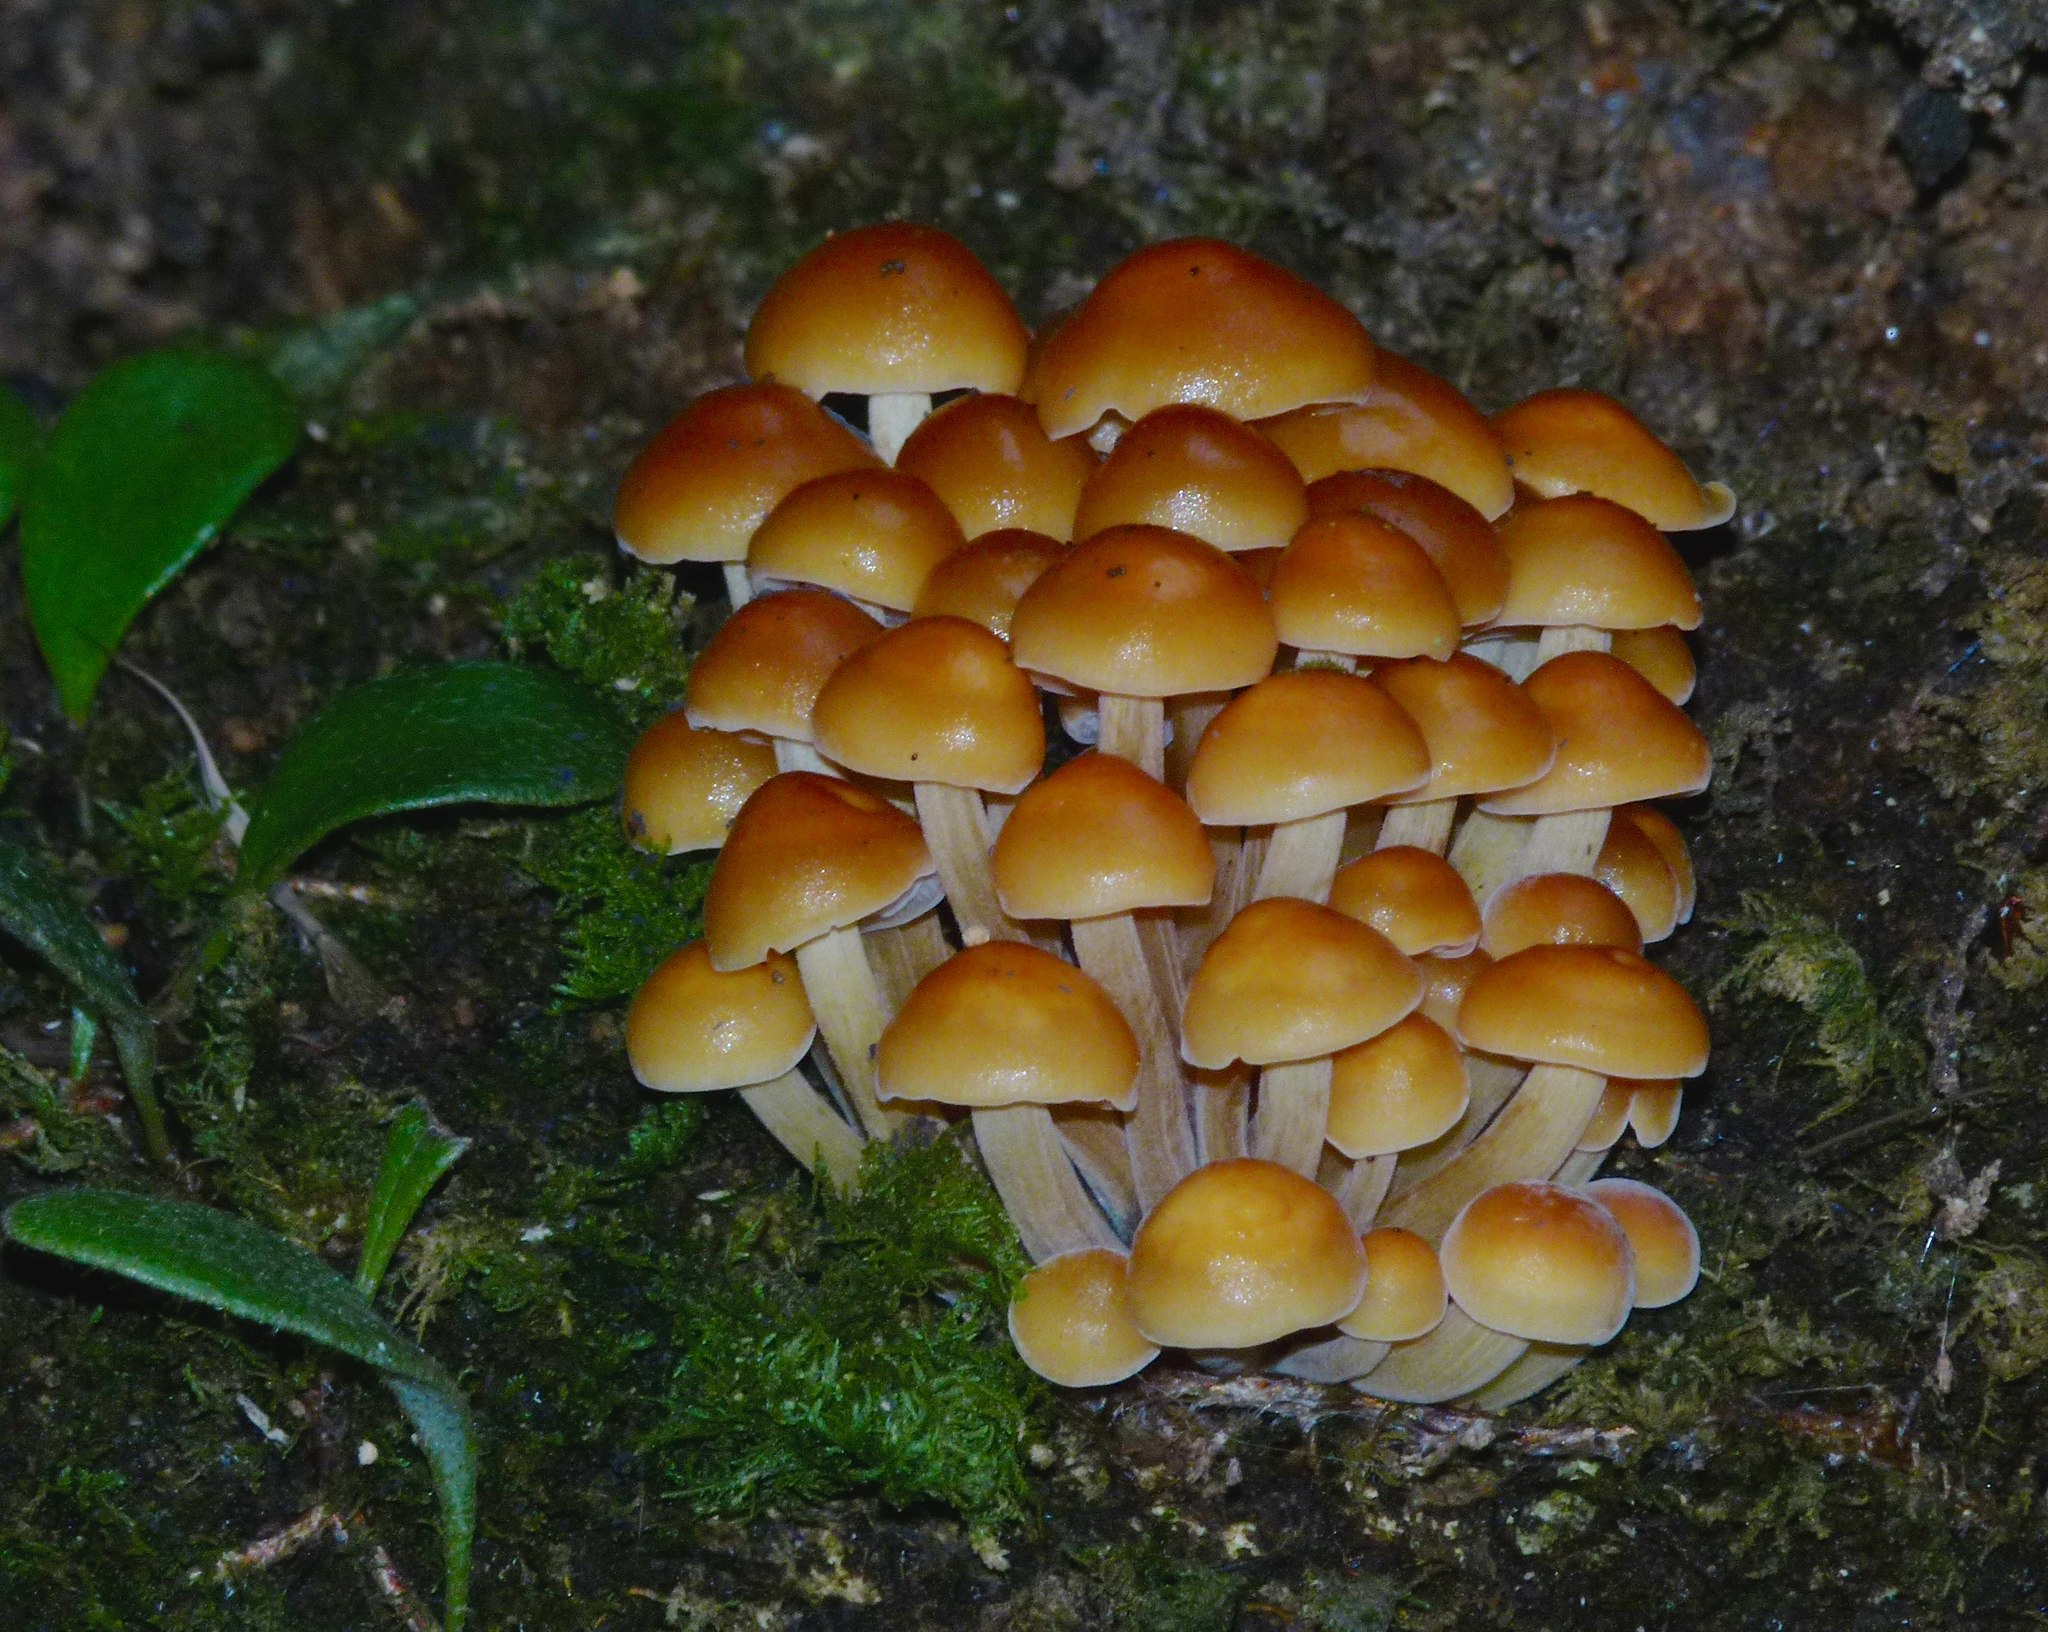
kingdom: Fungi
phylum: Basidiomycota
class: Agaricomycetes
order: Agaricales
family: Physalacriaceae
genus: Flammulina
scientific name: Flammulina velutipes
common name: Velvet shank
